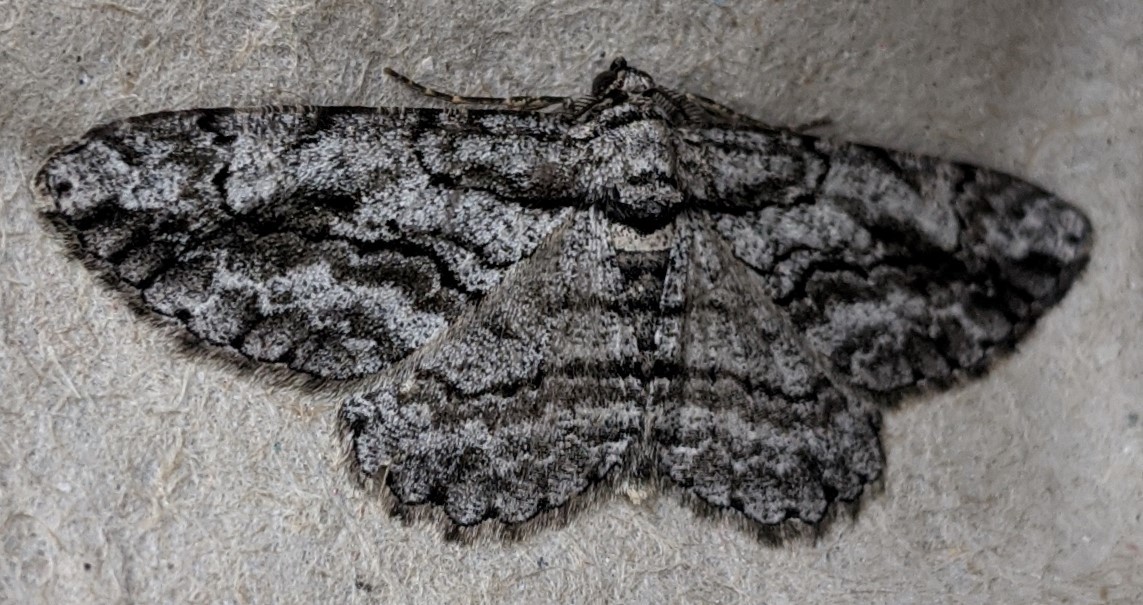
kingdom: Animalia
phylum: Arthropoda
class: Insecta
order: Lepidoptera
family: Geometridae
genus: Anavitrinella
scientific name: Anavitrinella pampinaria
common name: Common gray
